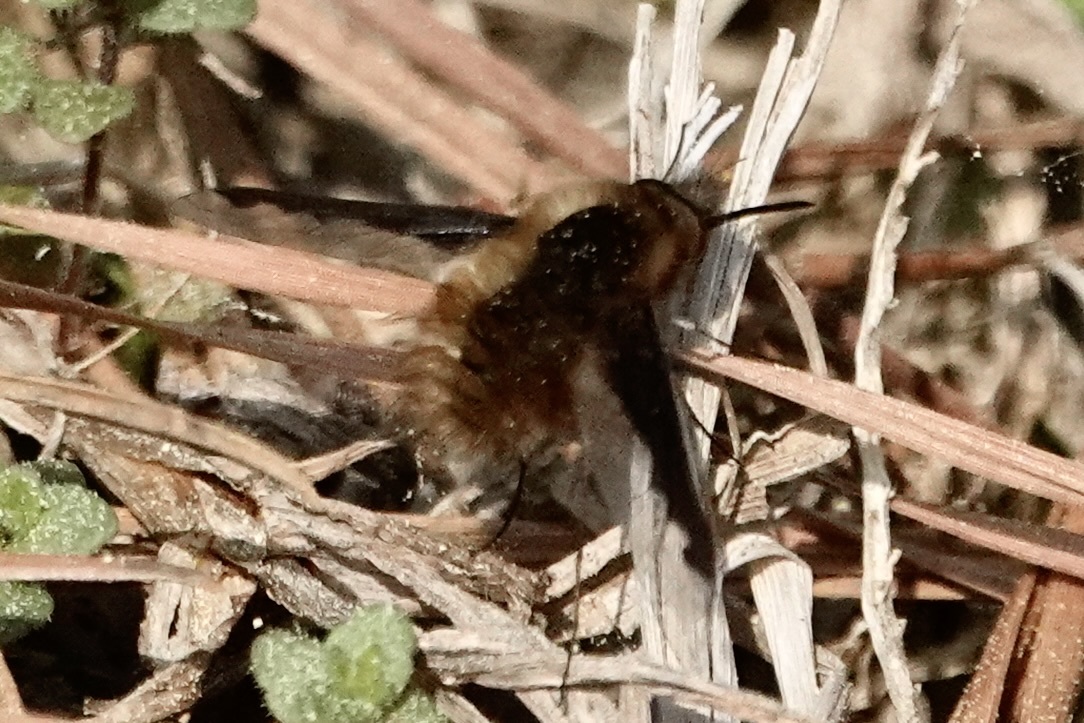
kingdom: Animalia
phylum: Arthropoda
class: Insecta
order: Diptera
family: Bombyliidae
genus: Bombylius
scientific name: Bombylius major
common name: Bee fly
